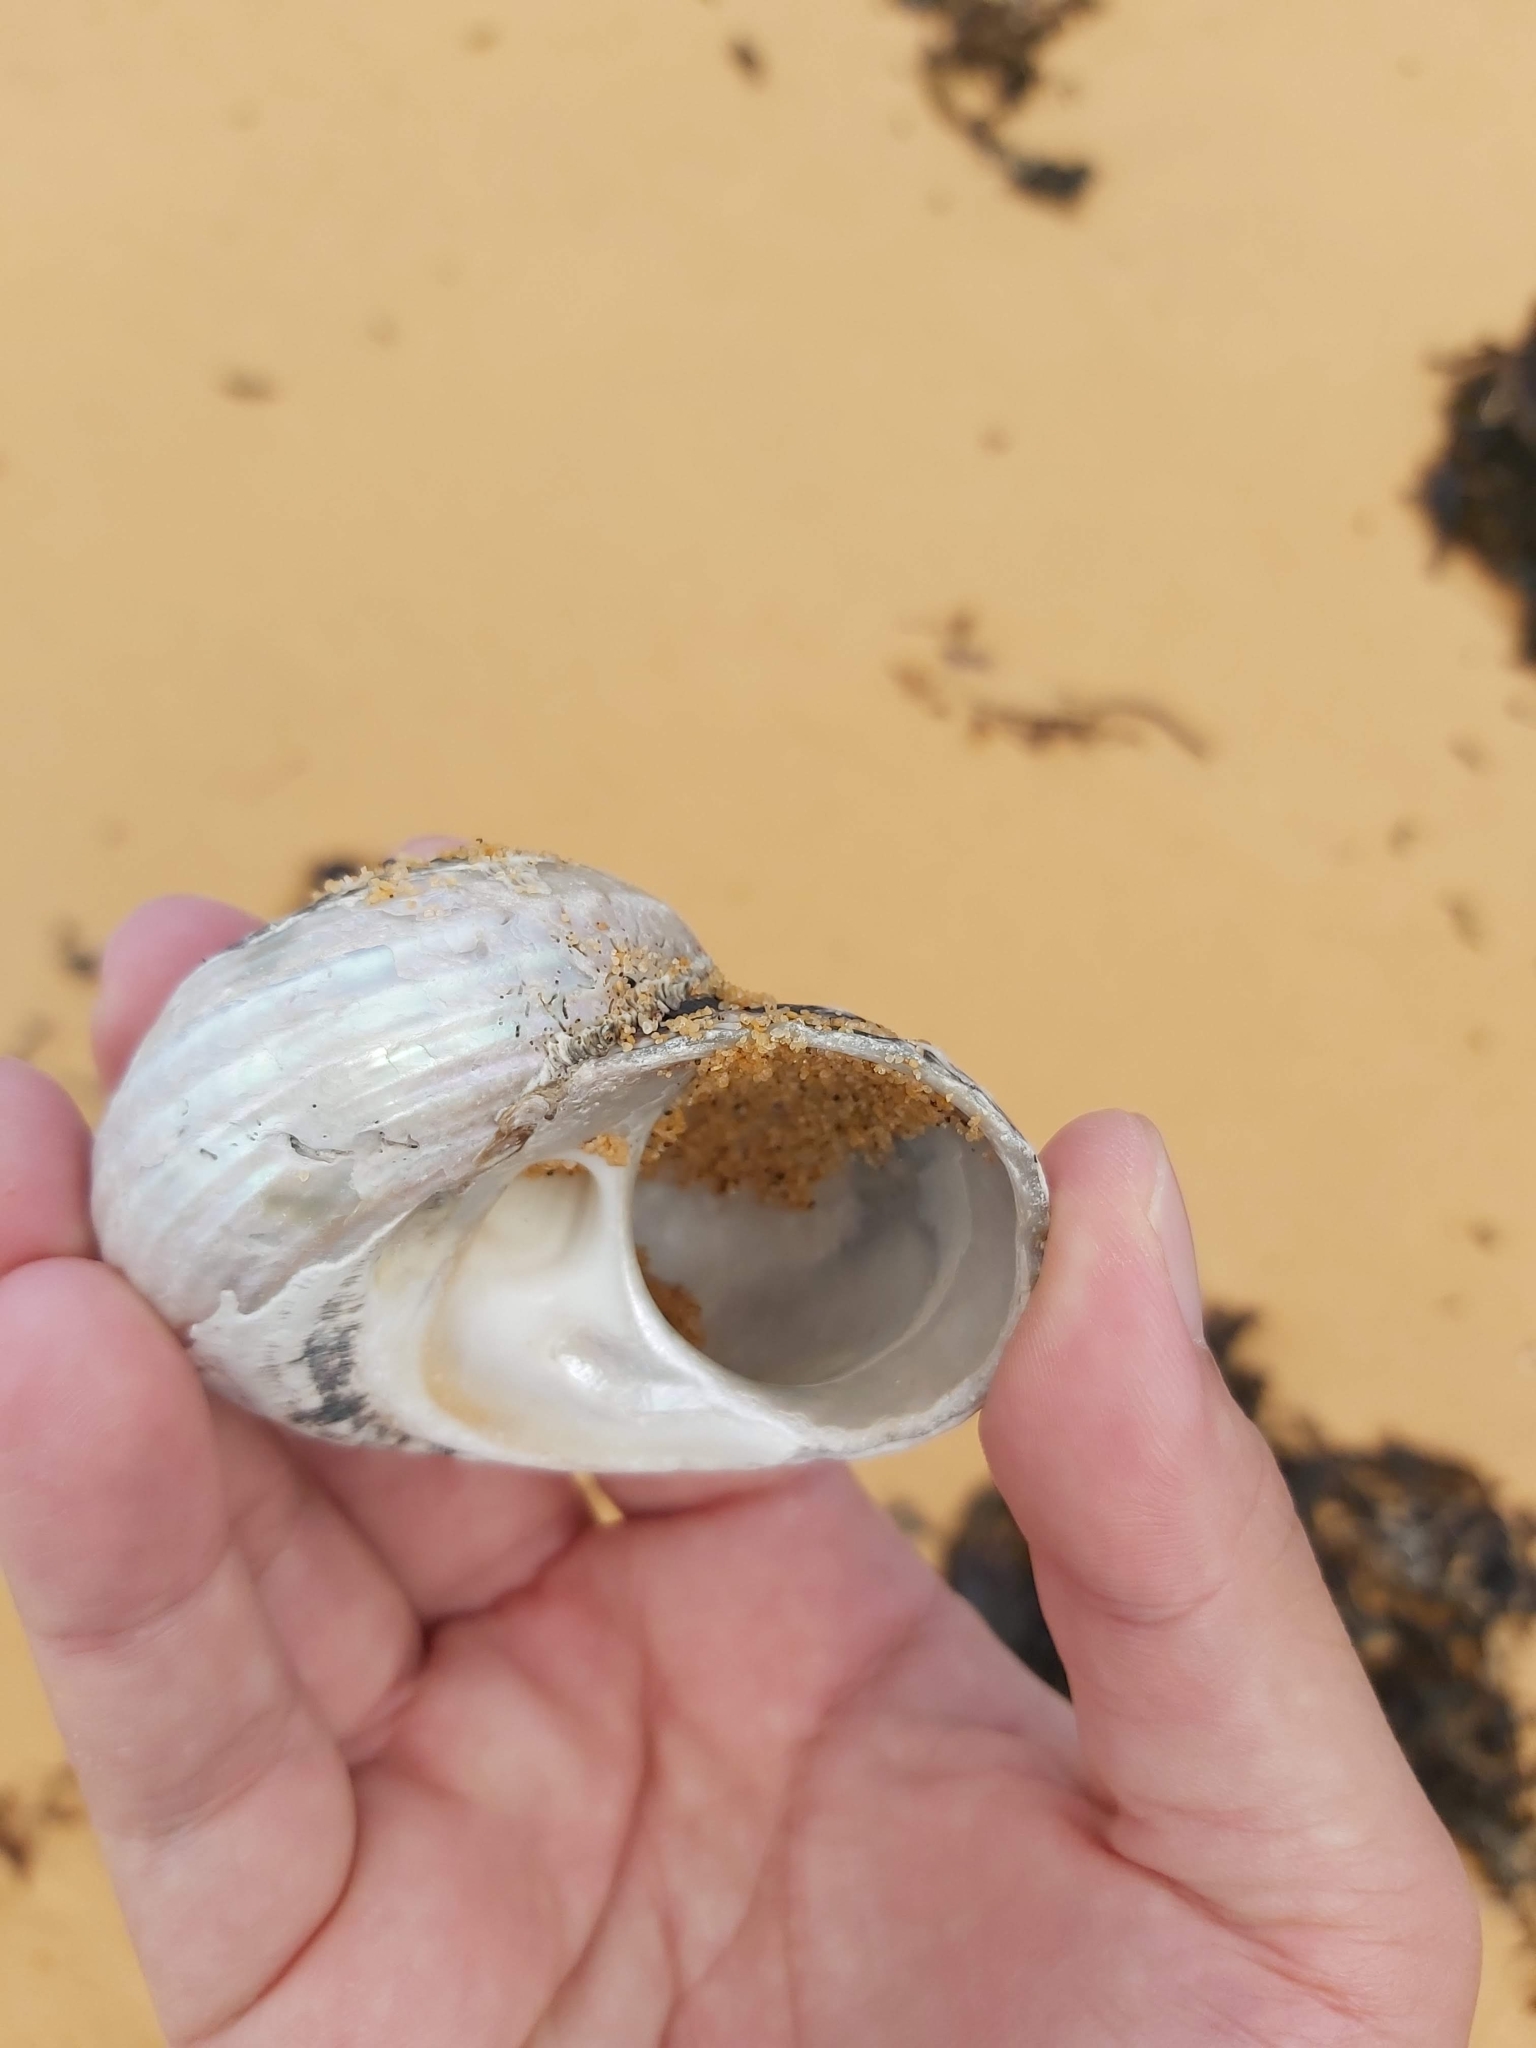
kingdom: Animalia
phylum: Mollusca
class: Gastropoda
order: Trochida
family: Turbinidae
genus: Lunella
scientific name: Lunella torquata
